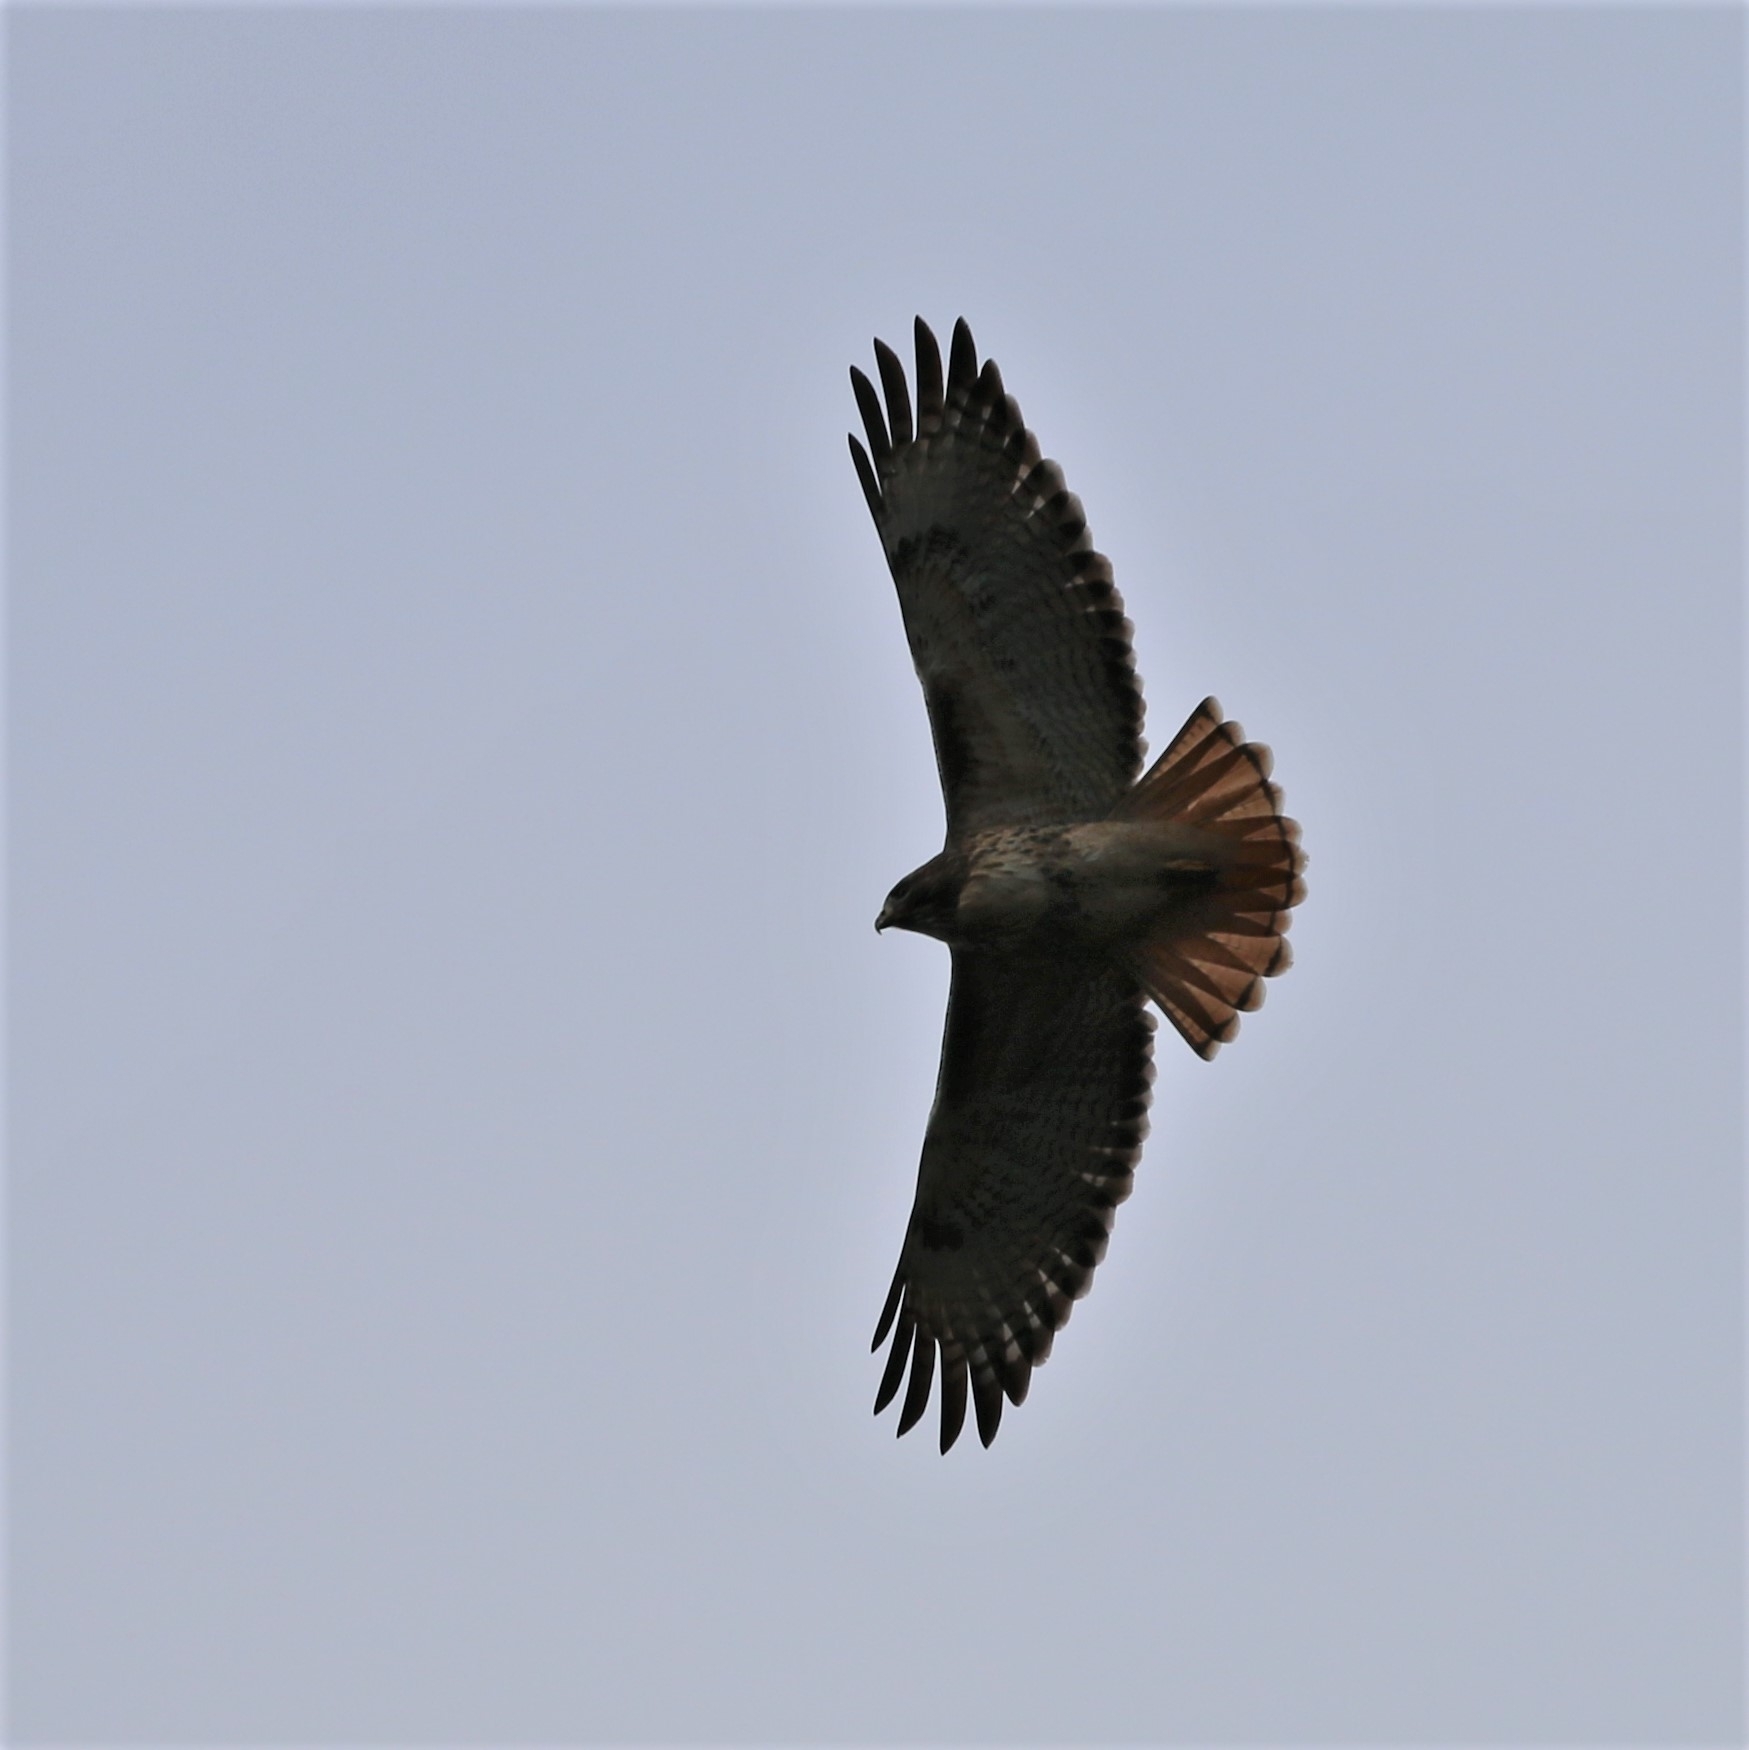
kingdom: Animalia
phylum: Chordata
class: Aves
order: Accipitriformes
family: Accipitridae
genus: Buteo
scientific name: Buteo jamaicensis
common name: Red-tailed hawk
